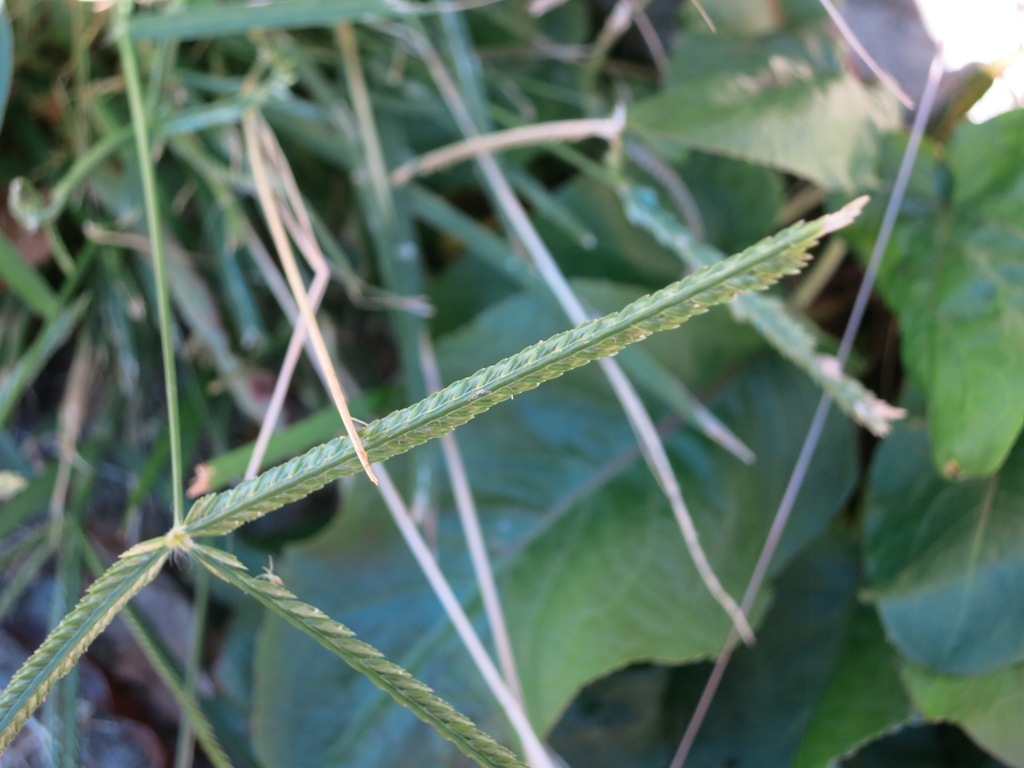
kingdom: Plantae
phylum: Tracheophyta
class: Liliopsida
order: Poales
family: Poaceae
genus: Eleusine
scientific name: Eleusine indica
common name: Yard-grass
